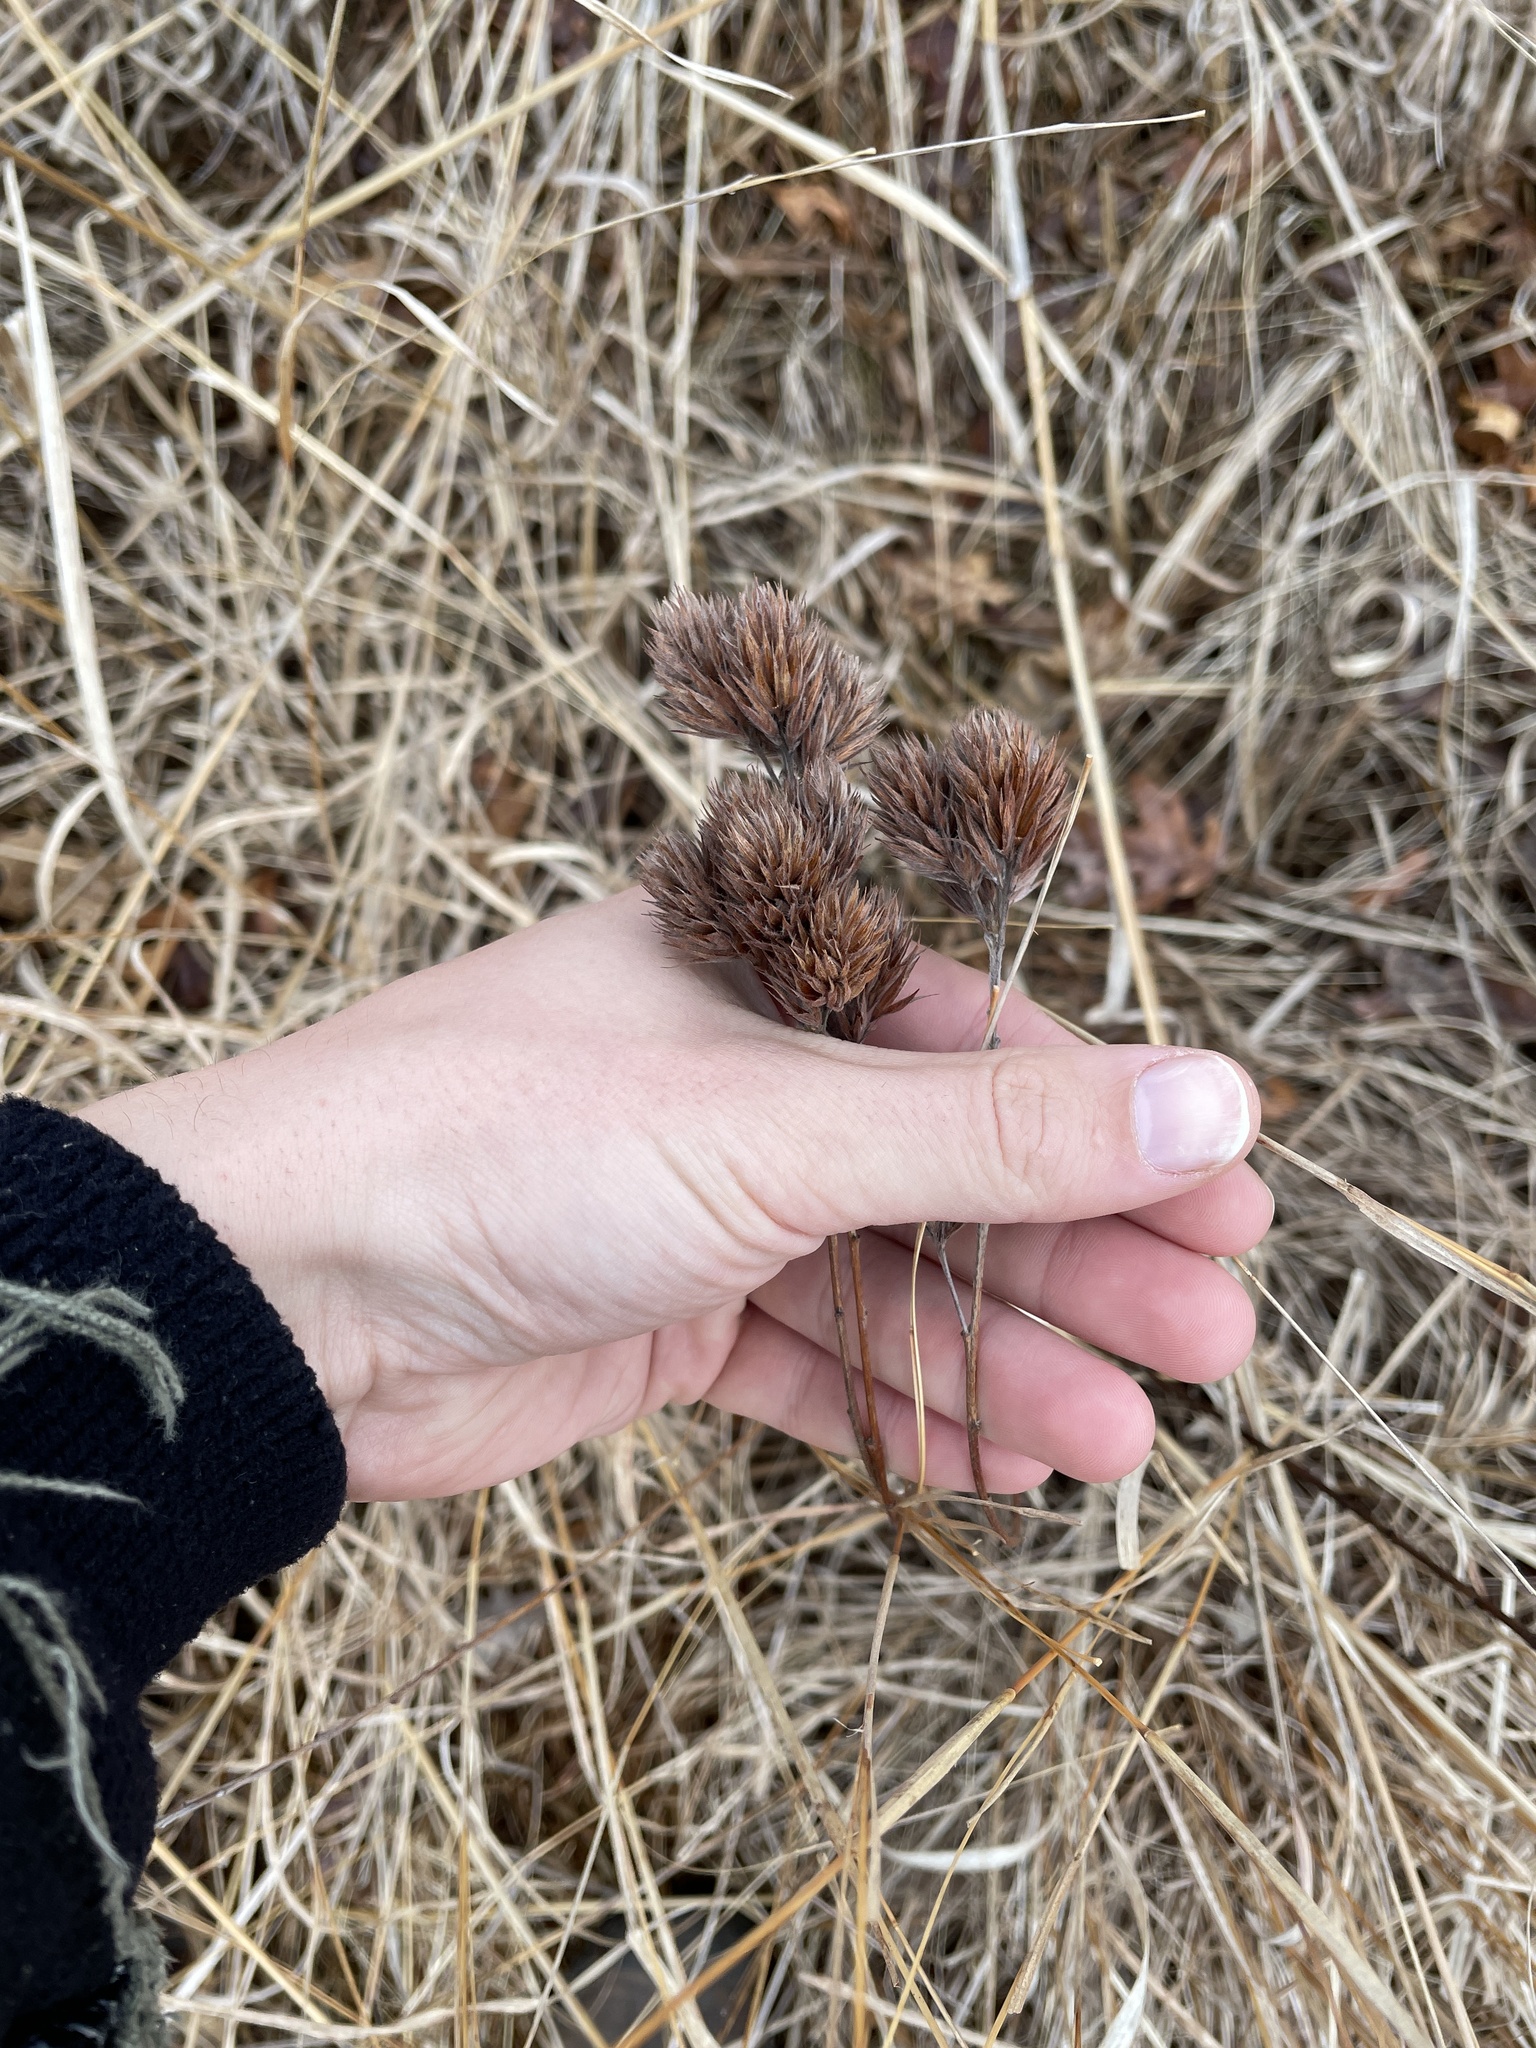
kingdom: Plantae
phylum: Tracheophyta
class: Magnoliopsida
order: Fabales
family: Fabaceae
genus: Lespedeza
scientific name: Lespedeza capitata
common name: Dusty clover
